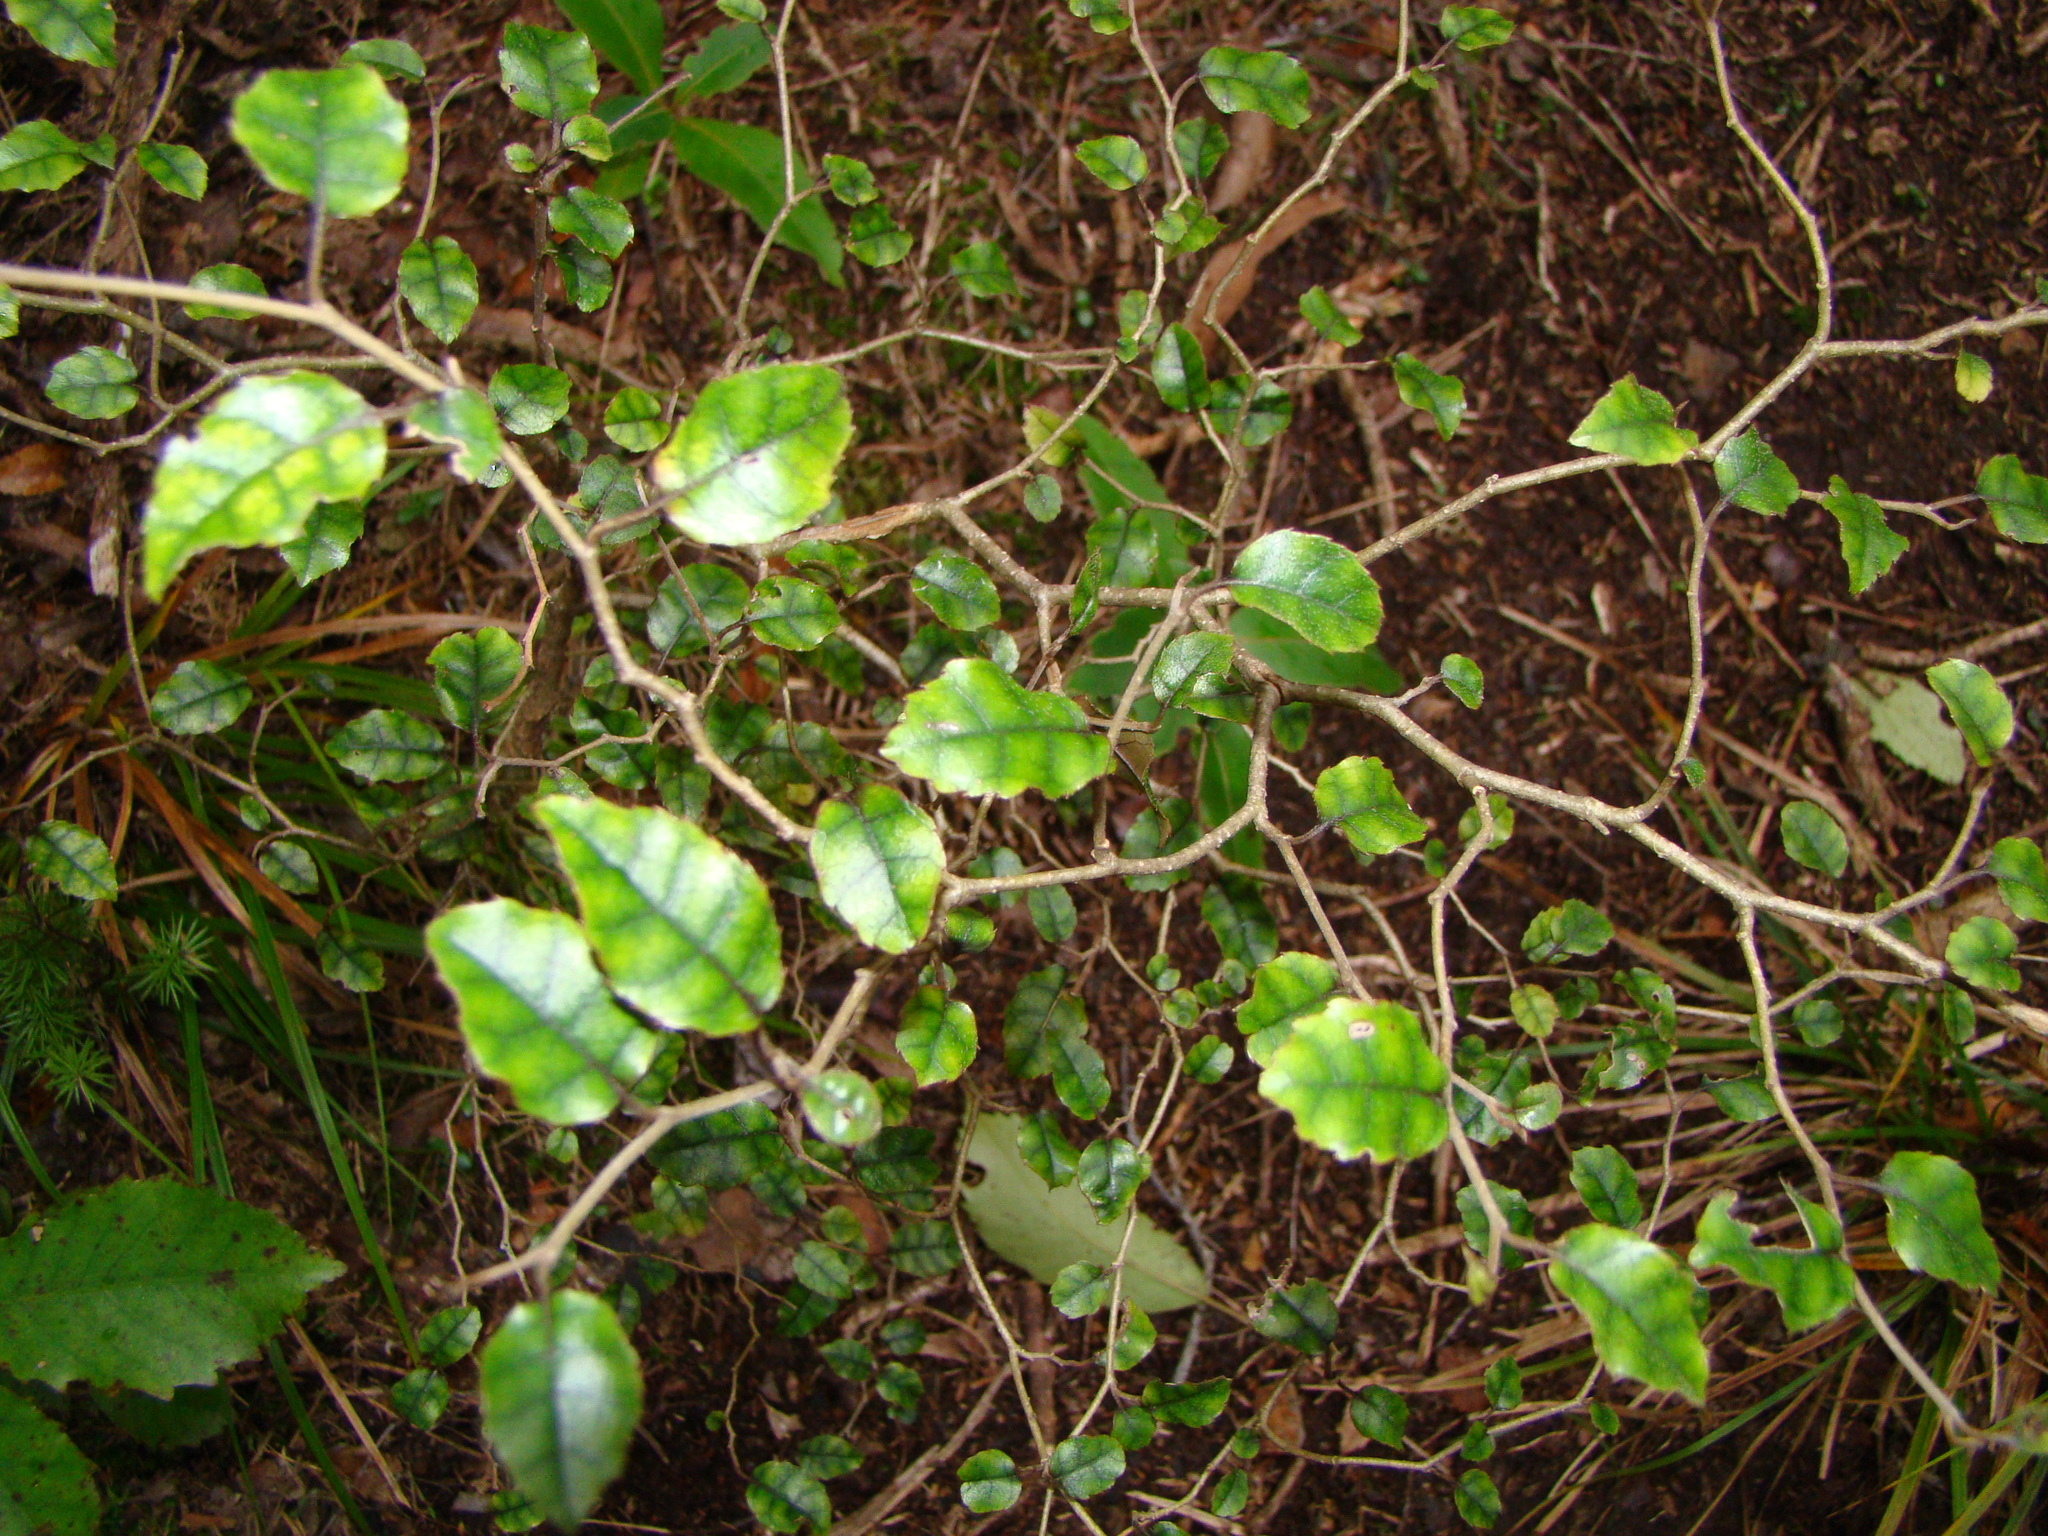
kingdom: Plantae
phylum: Tracheophyta
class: Magnoliopsida
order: Asterales
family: Rousseaceae
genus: Carpodetus
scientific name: Carpodetus serratus
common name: White mapau
